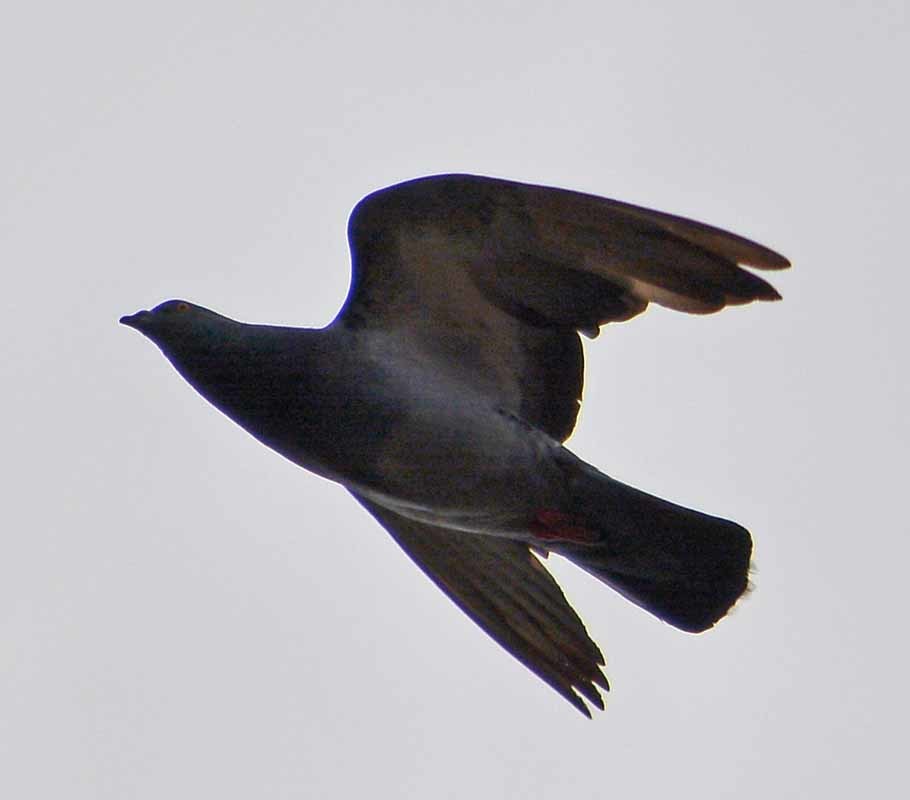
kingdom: Animalia
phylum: Chordata
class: Aves
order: Columbiformes
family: Columbidae
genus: Columba
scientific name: Columba livia
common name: Rock pigeon
